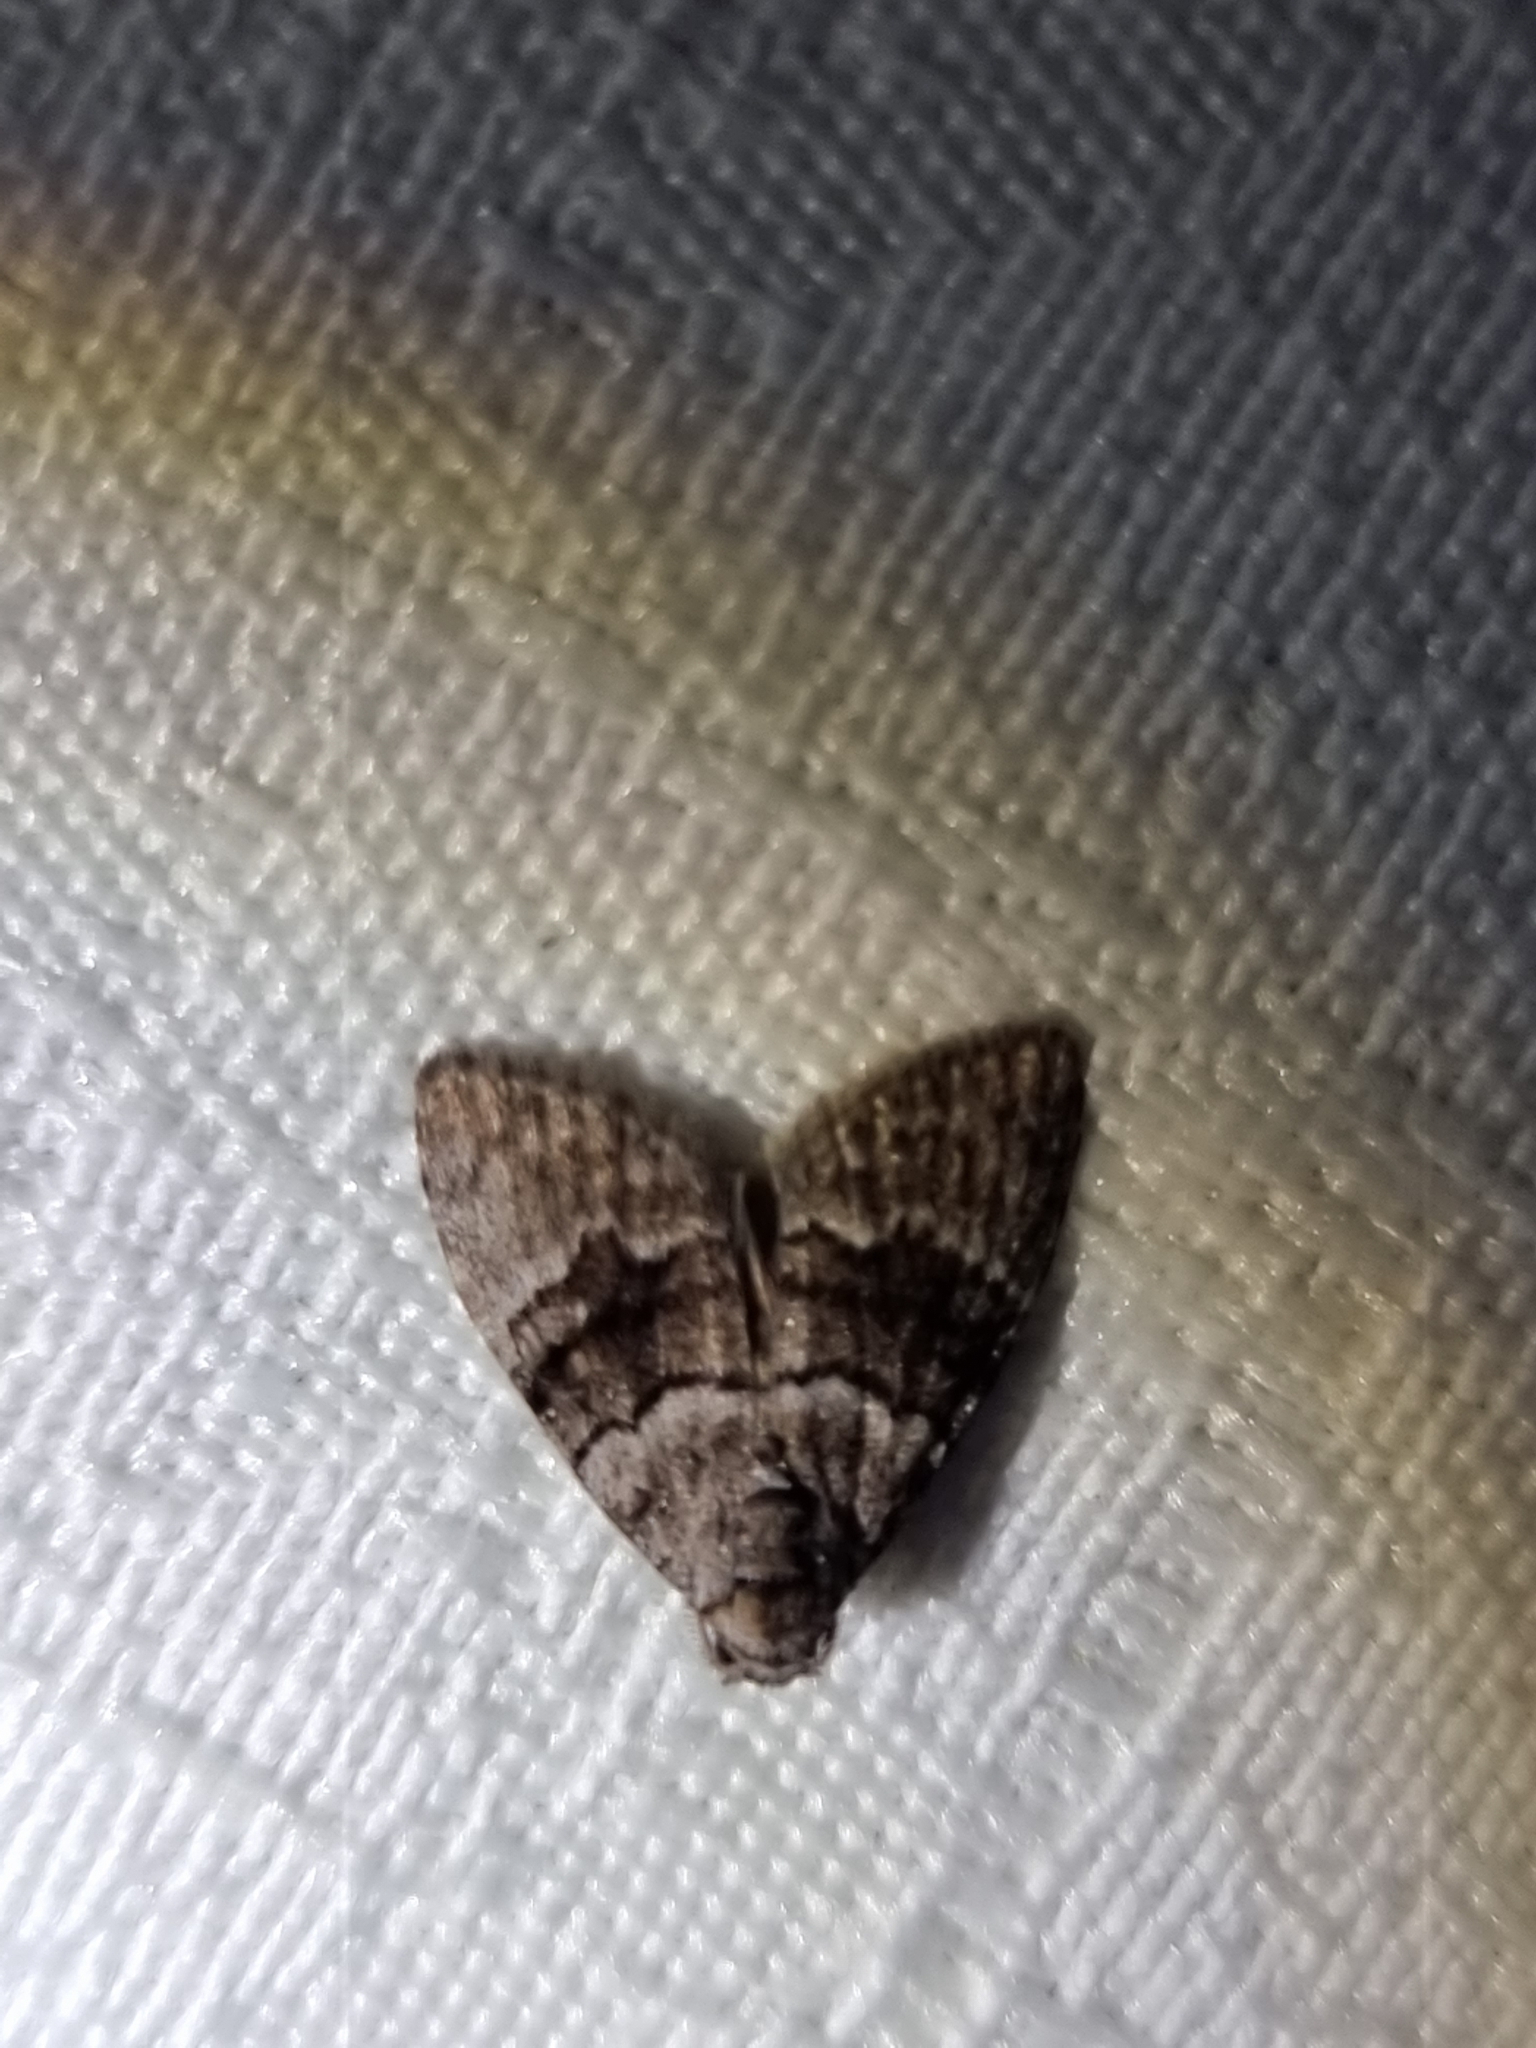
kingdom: Animalia
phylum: Arthropoda
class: Insecta
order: Lepidoptera
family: Nolidae
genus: Uraba
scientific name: Uraba lugens
